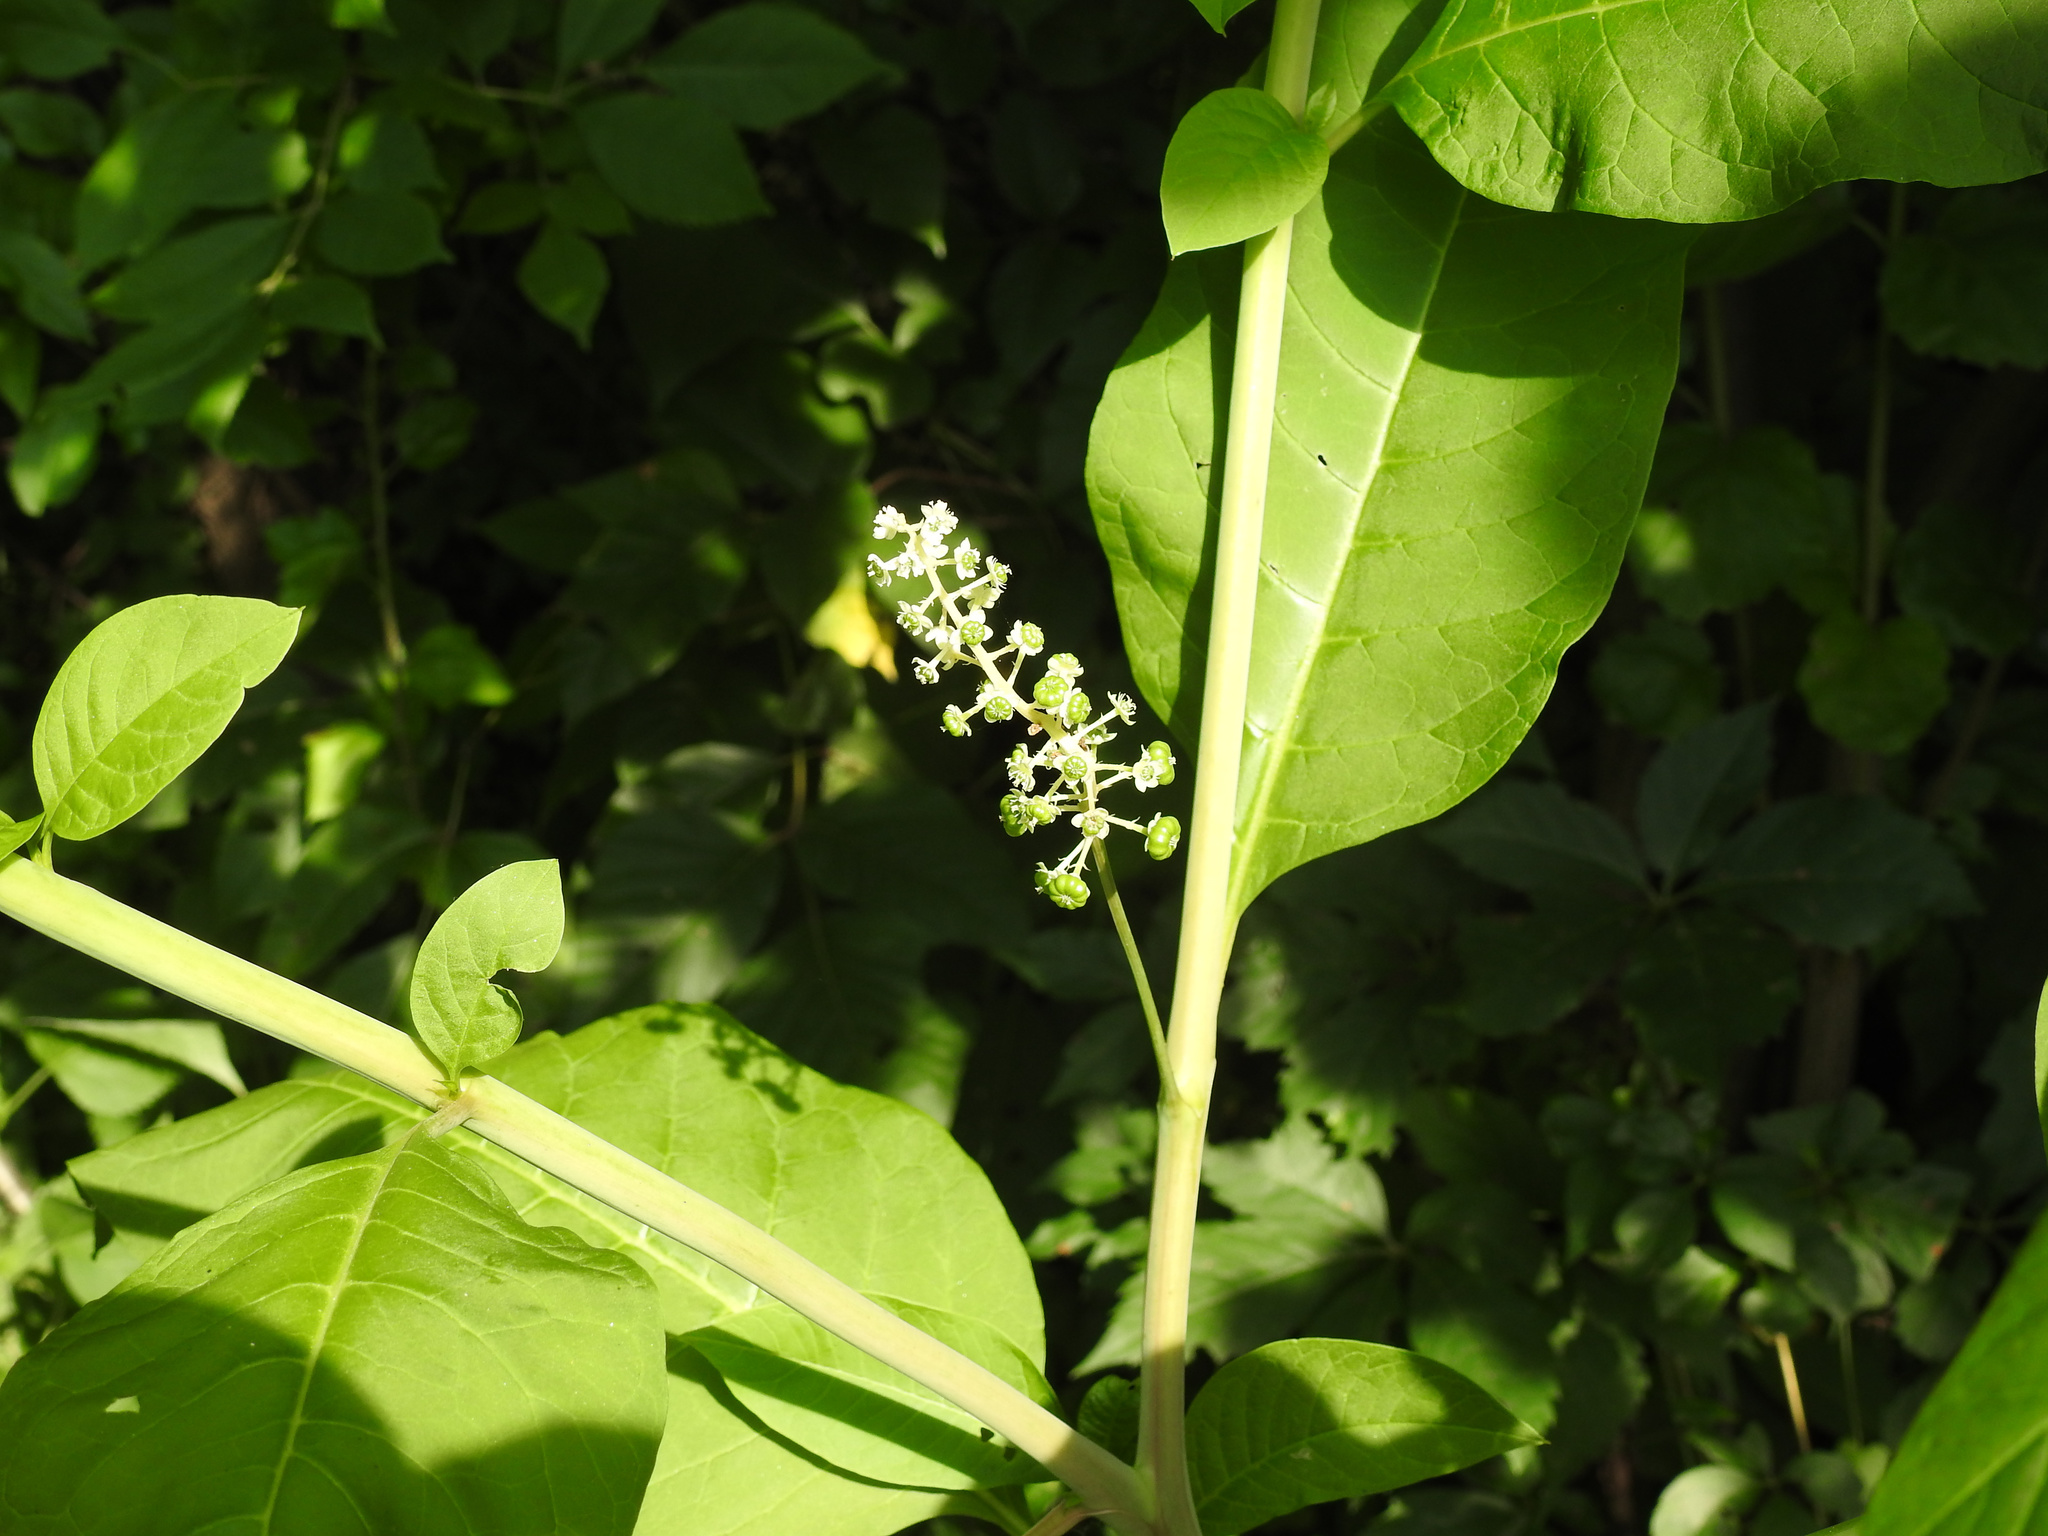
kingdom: Plantae
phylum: Tracheophyta
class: Magnoliopsida
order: Caryophyllales
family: Phytolaccaceae
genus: Phytolacca
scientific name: Phytolacca americana
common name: American pokeweed
